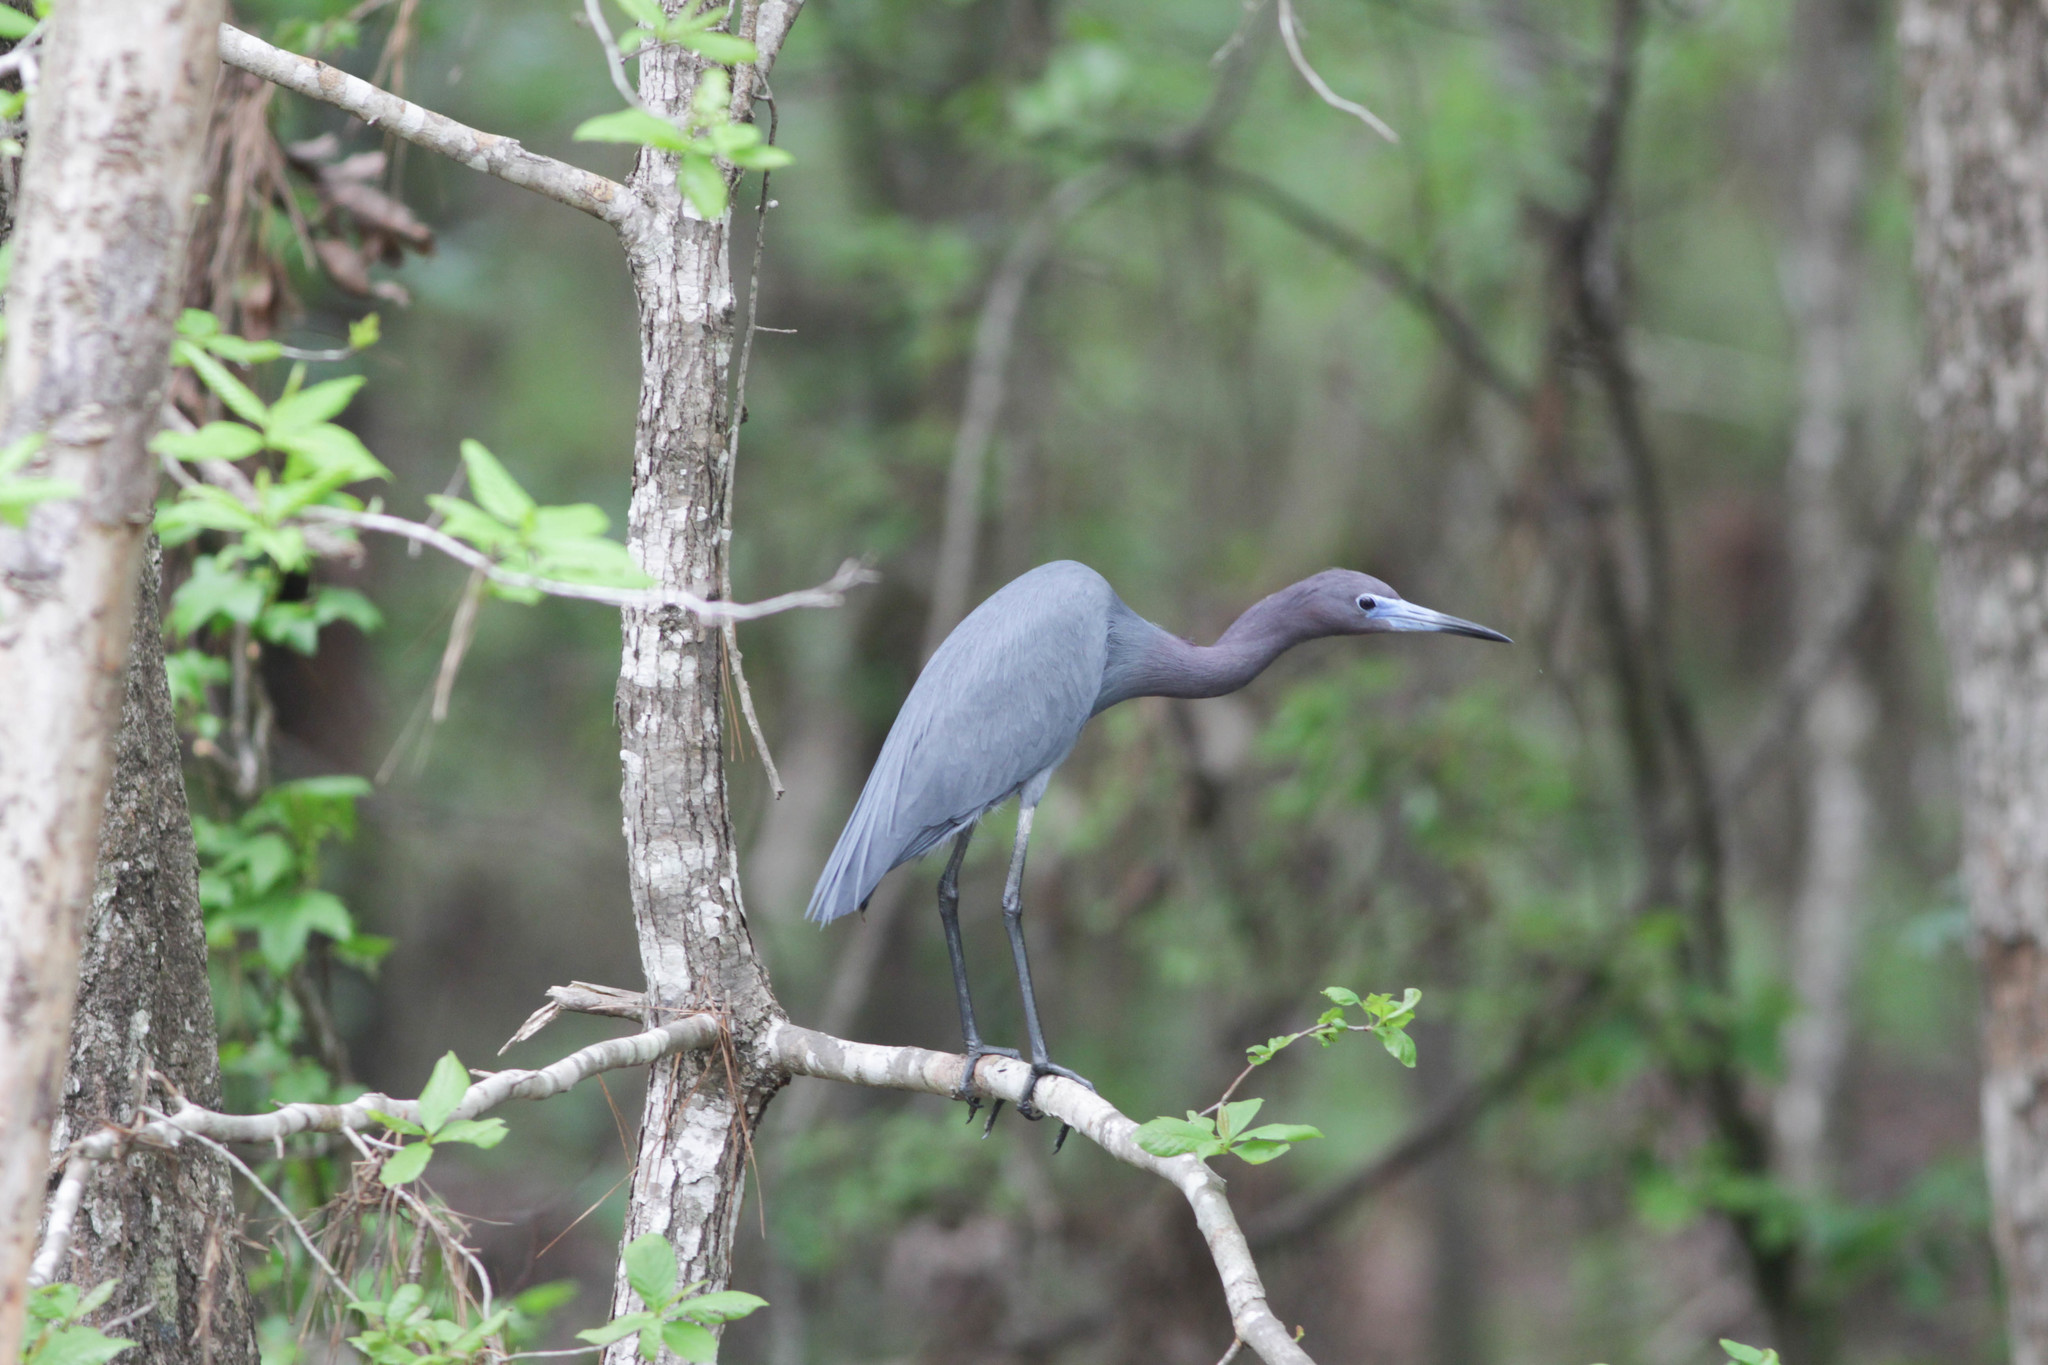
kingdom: Animalia
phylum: Chordata
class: Aves
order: Pelecaniformes
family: Ardeidae
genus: Egretta
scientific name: Egretta caerulea
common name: Little blue heron
